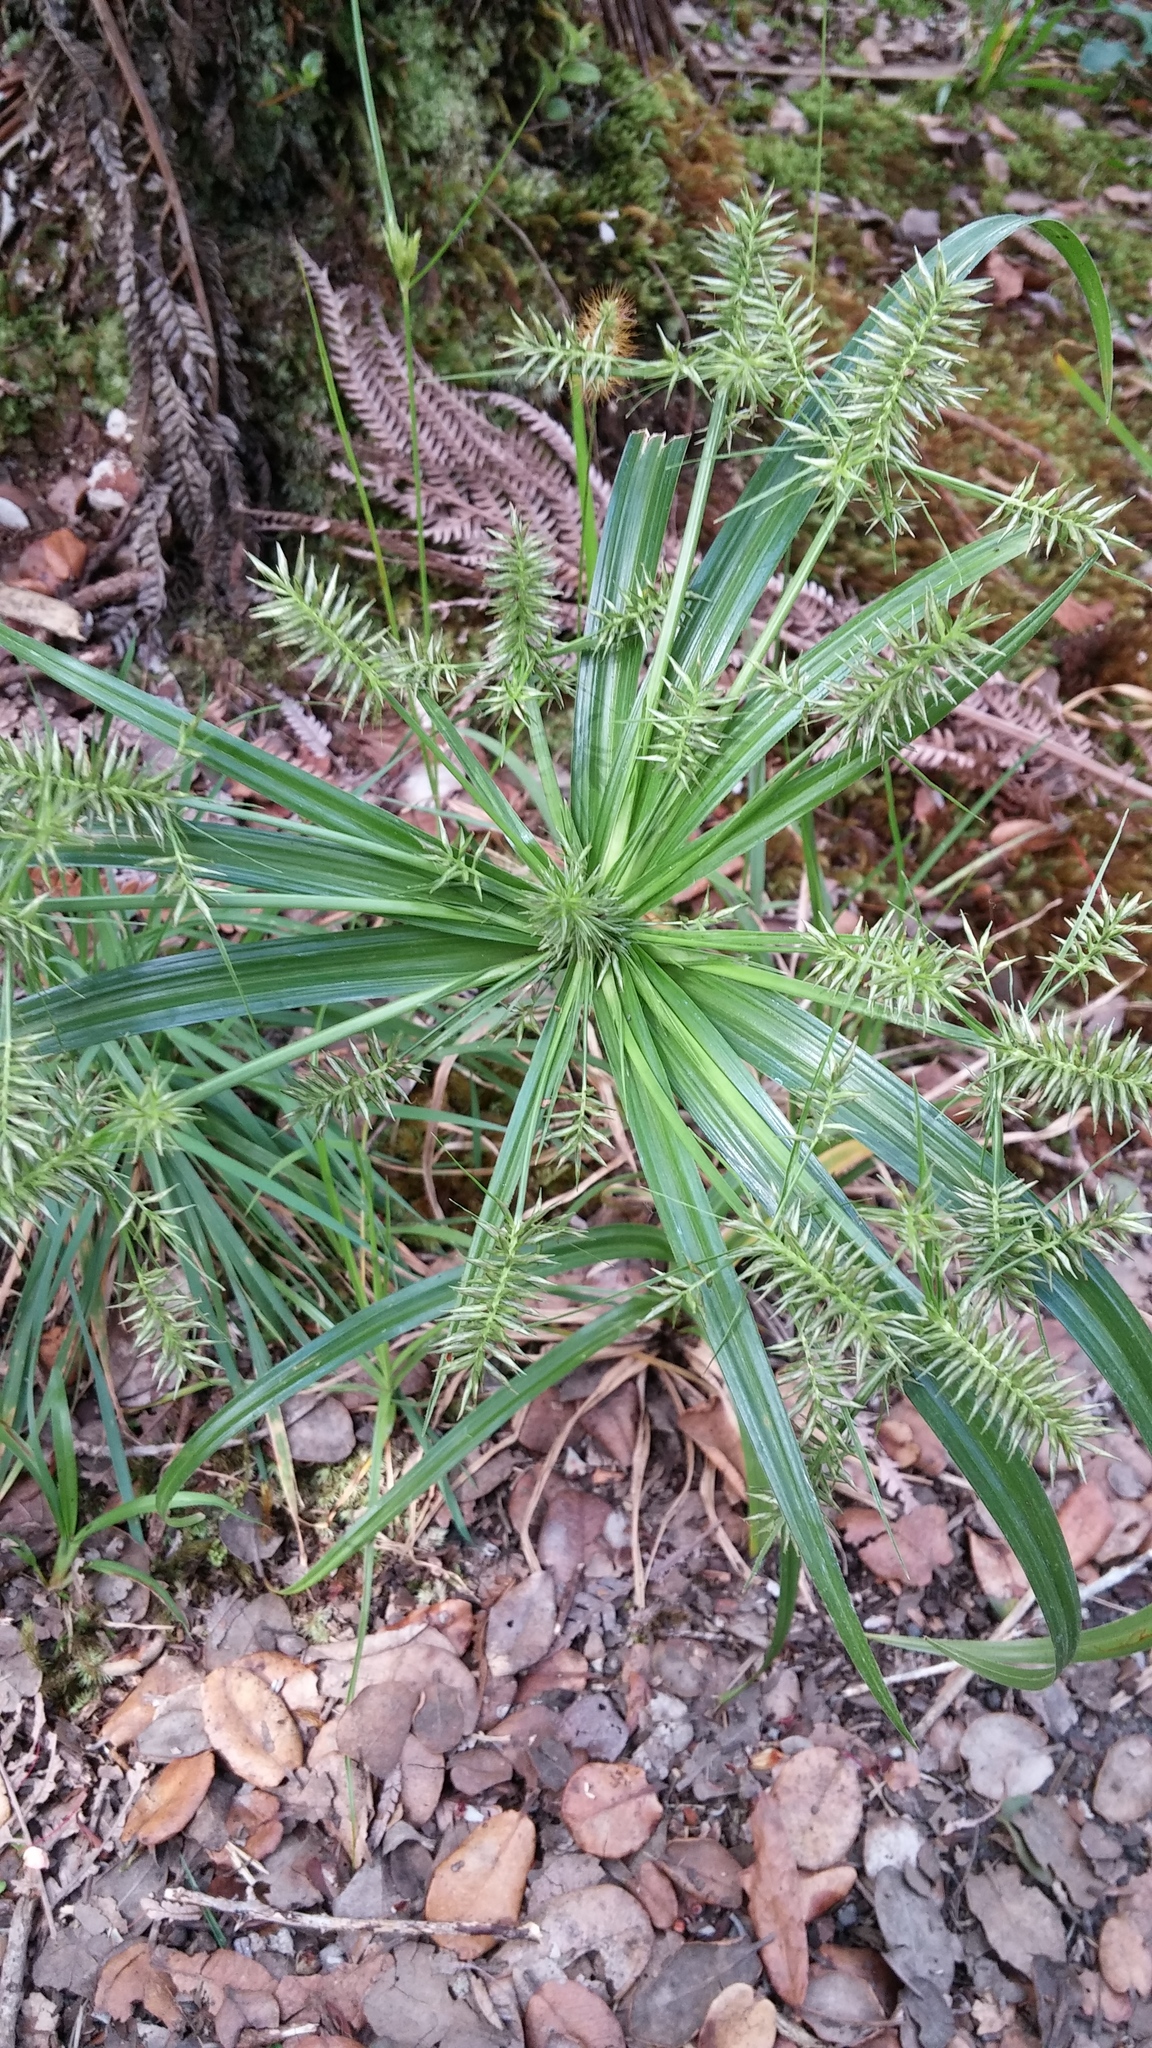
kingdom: Plantae
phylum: Tracheophyta
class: Liliopsida
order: Poales
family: Cyperaceae
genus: Cyperus
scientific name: Cyperus meyenianus
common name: Meyen's flatsedge
